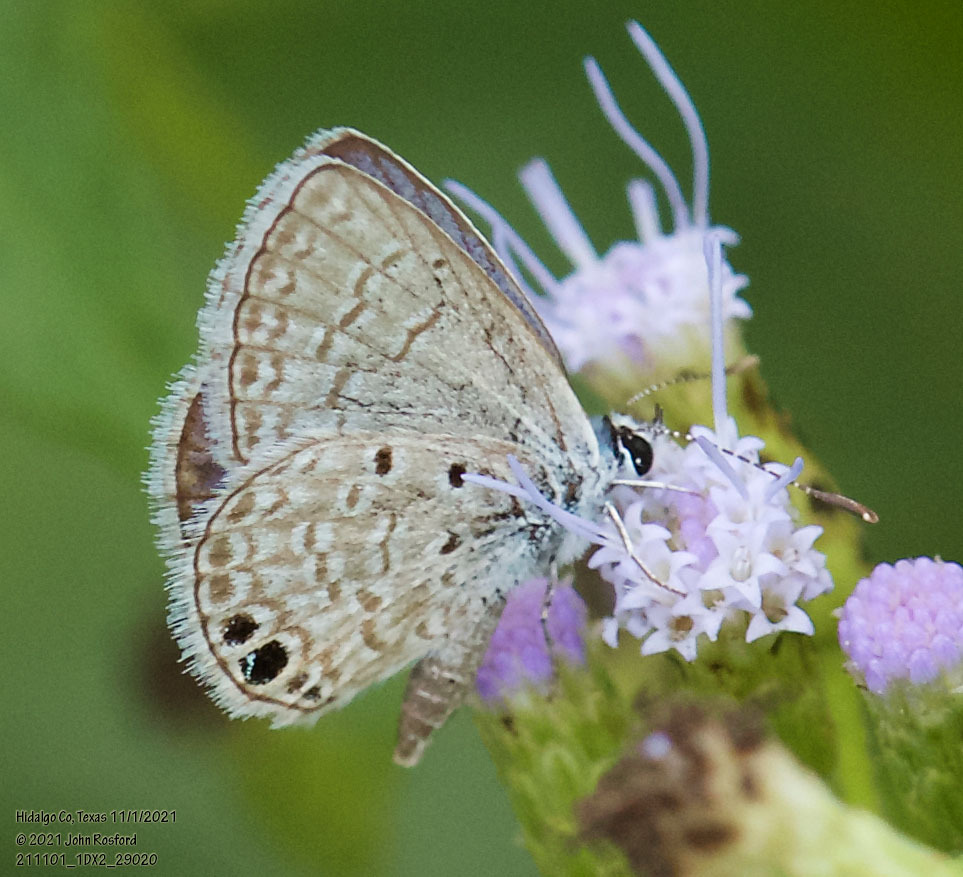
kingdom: Animalia
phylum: Arthropoda
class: Insecta
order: Lepidoptera
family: Lycaenidae
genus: Hemiargus
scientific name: Hemiargus ceraunus
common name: Ceraunus blue
